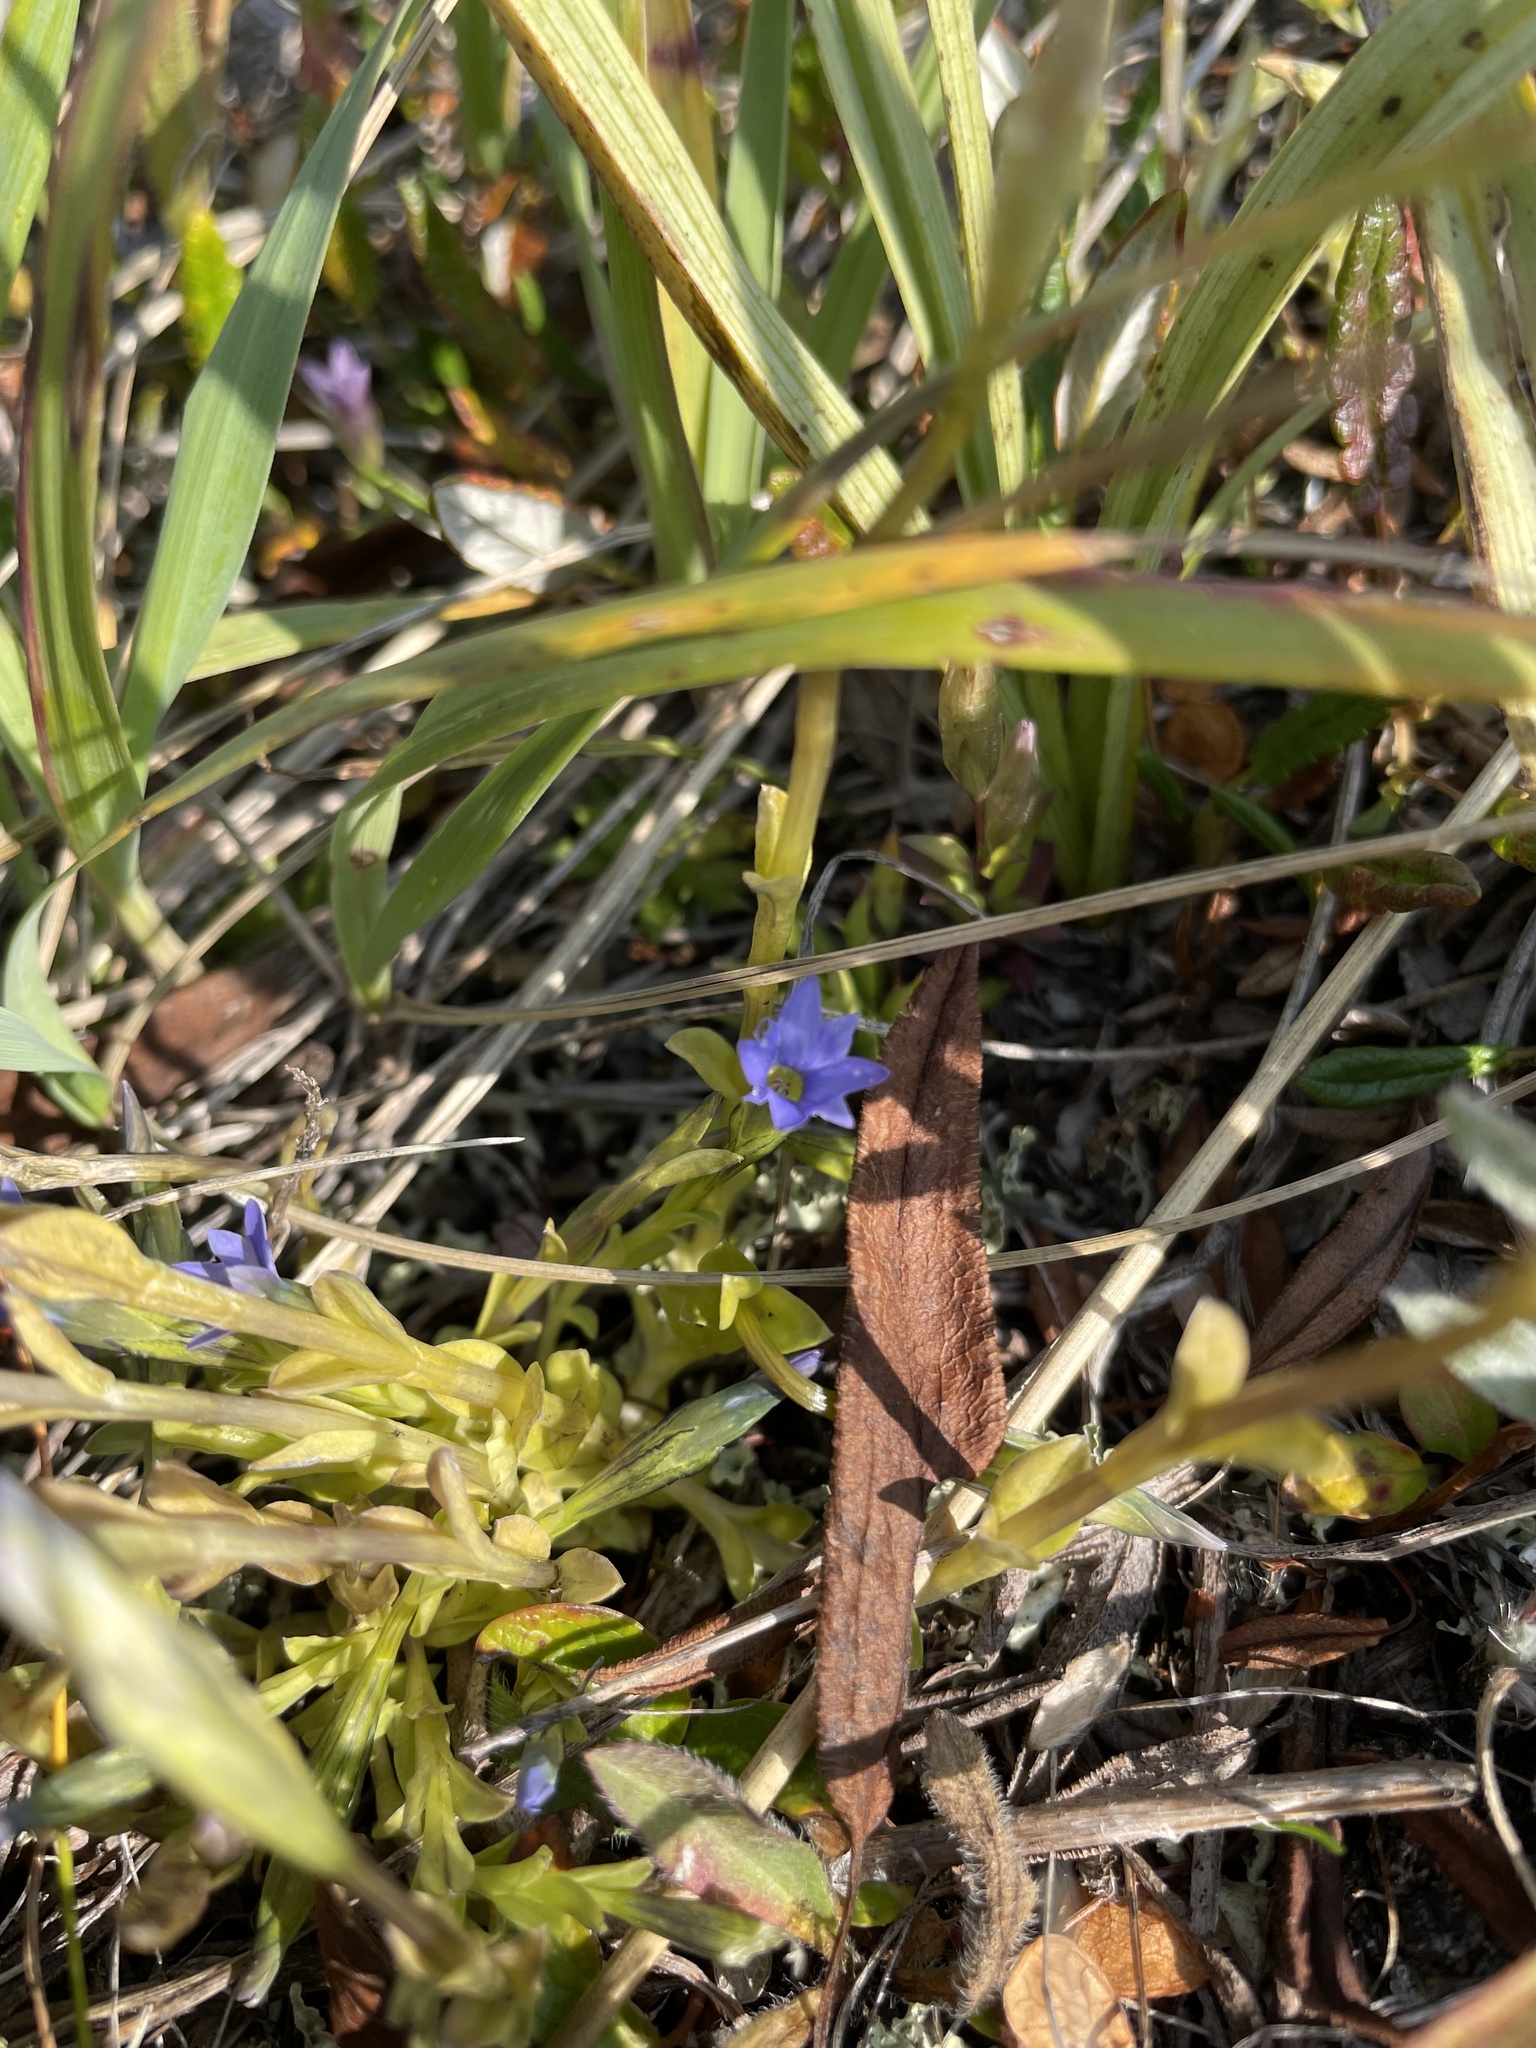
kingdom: Plantae
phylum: Tracheophyta
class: Magnoliopsida
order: Gentianales
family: Gentianaceae
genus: Gentiana
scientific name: Gentiana prostrata
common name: Moss gentian
